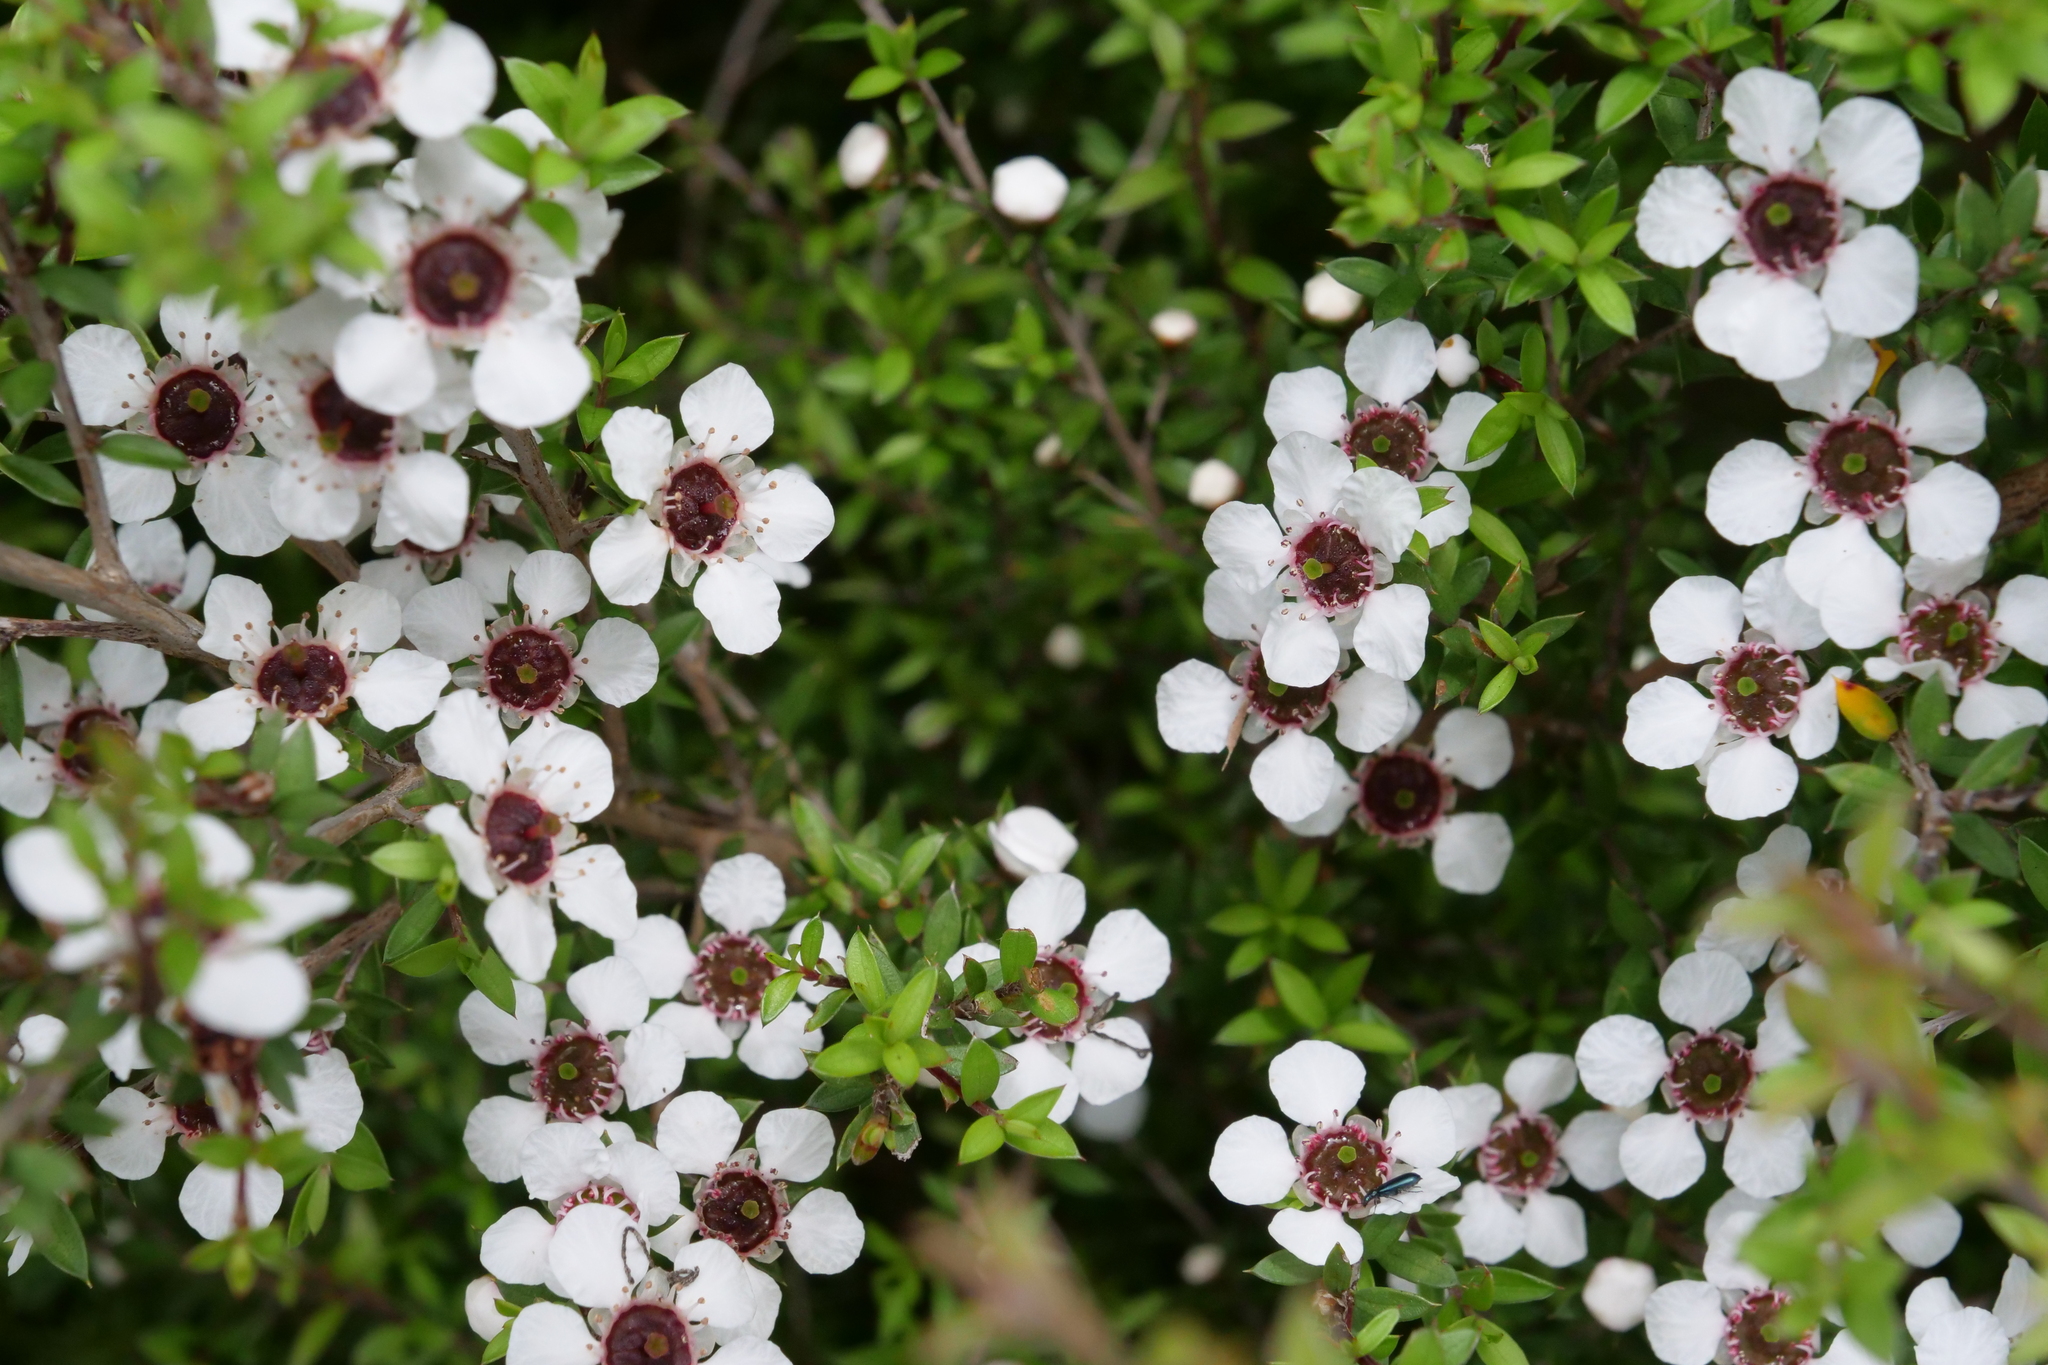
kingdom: Plantae
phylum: Tracheophyta
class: Magnoliopsida
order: Myrtales
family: Myrtaceae
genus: Leptospermum
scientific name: Leptospermum scoparium
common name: Broom tea-tree
